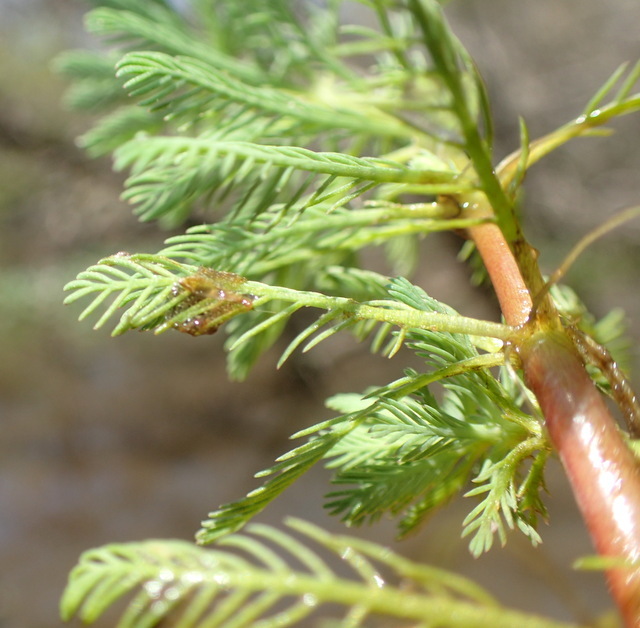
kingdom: Plantae
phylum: Tracheophyta
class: Magnoliopsida
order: Saxifragales
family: Haloragaceae
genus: Myriophyllum
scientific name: Myriophyllum aquaticum
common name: Parrot's feather
